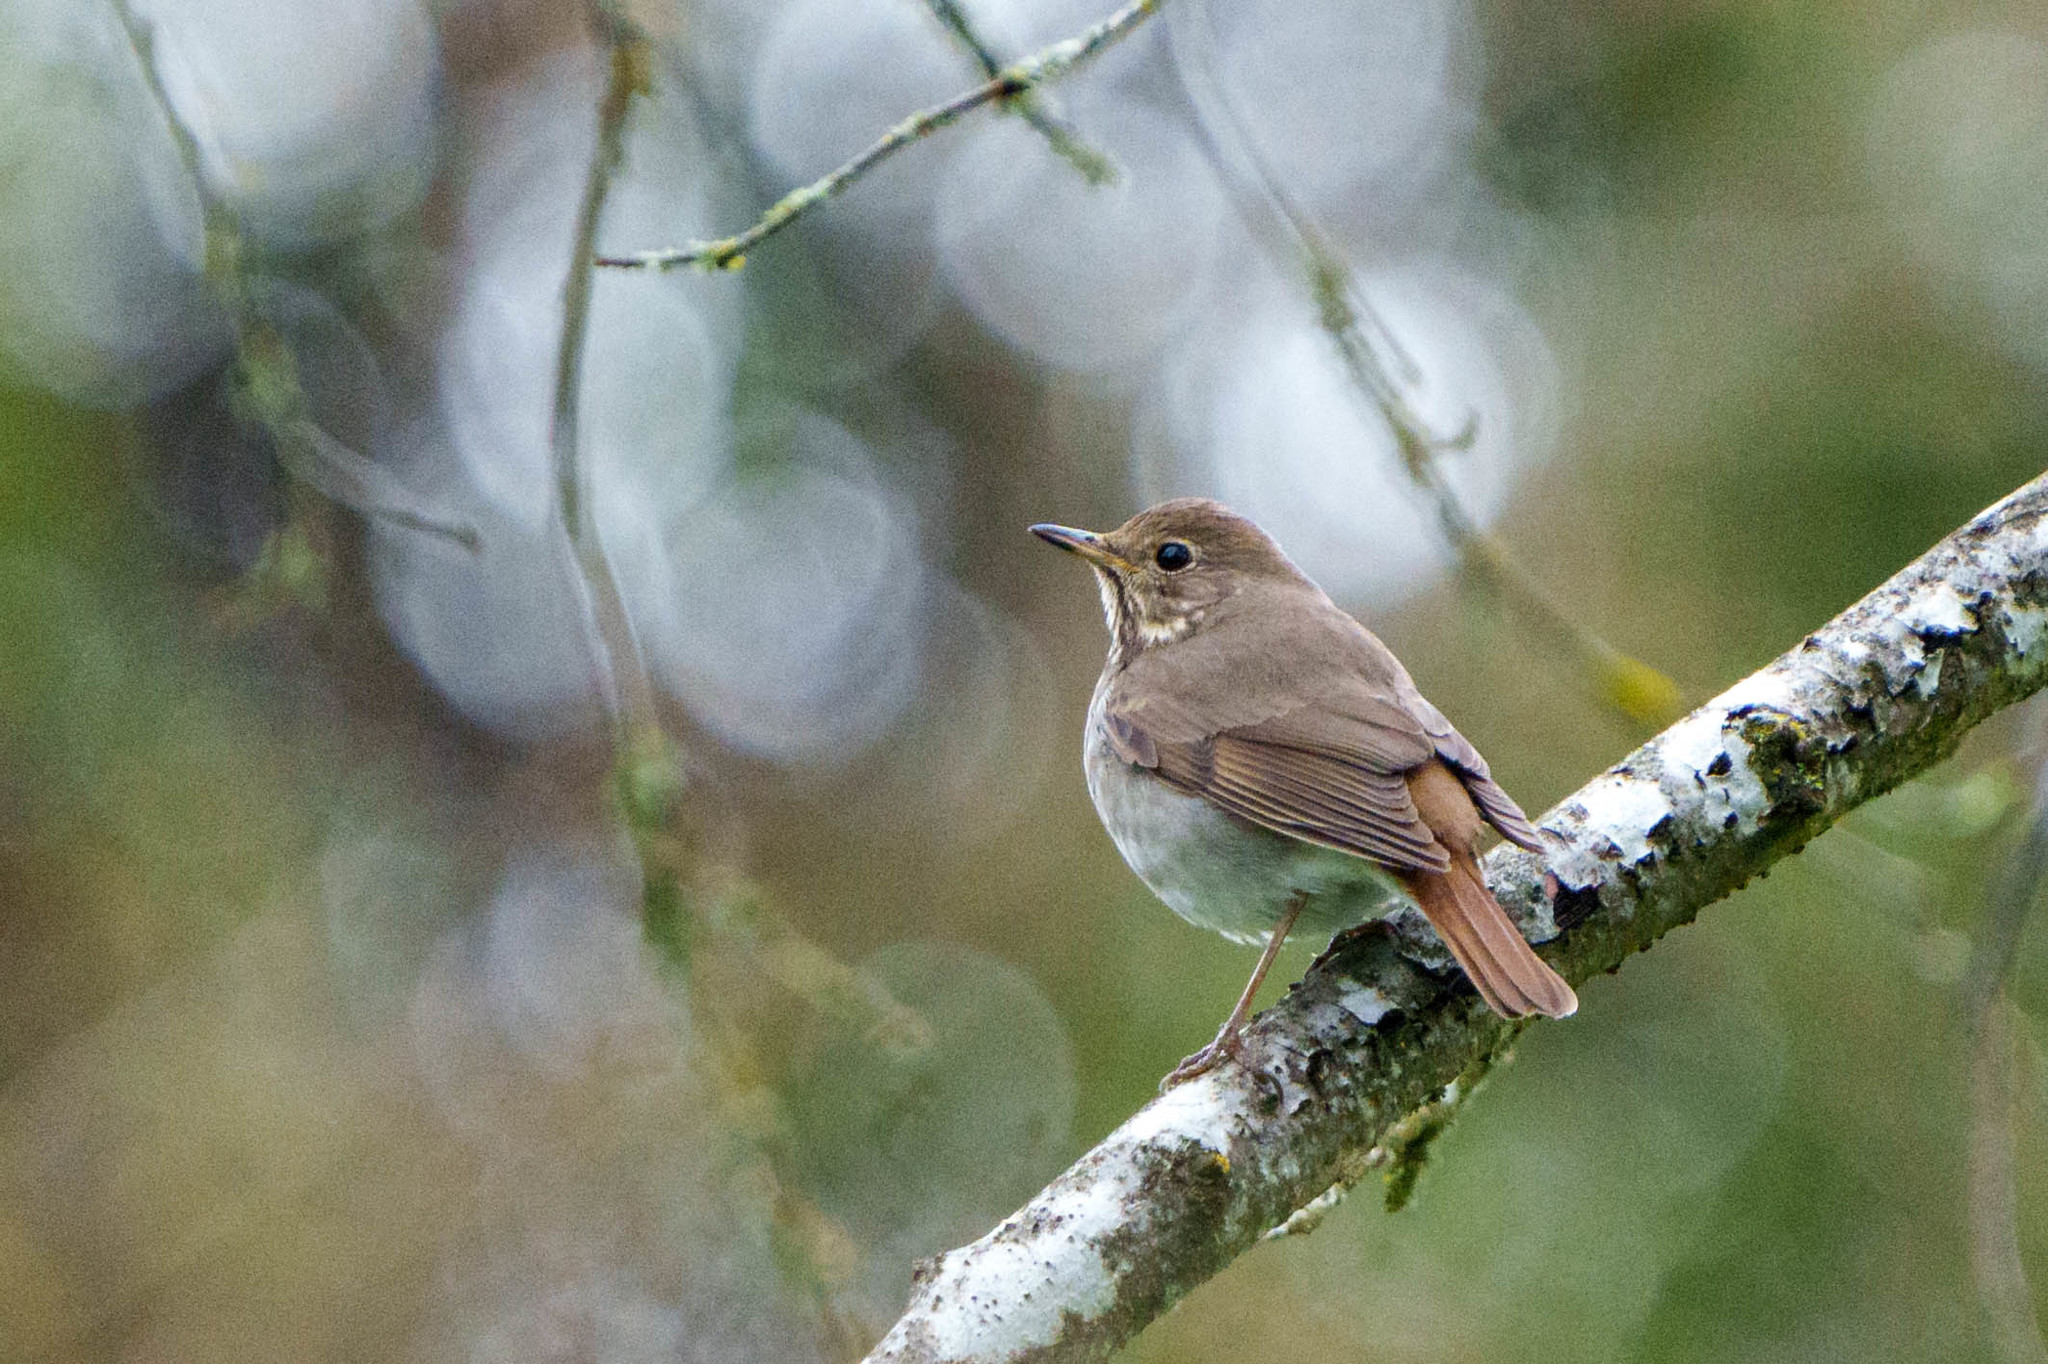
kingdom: Animalia
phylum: Chordata
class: Aves
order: Passeriformes
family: Turdidae
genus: Catharus
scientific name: Catharus guttatus
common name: Hermit thrush
